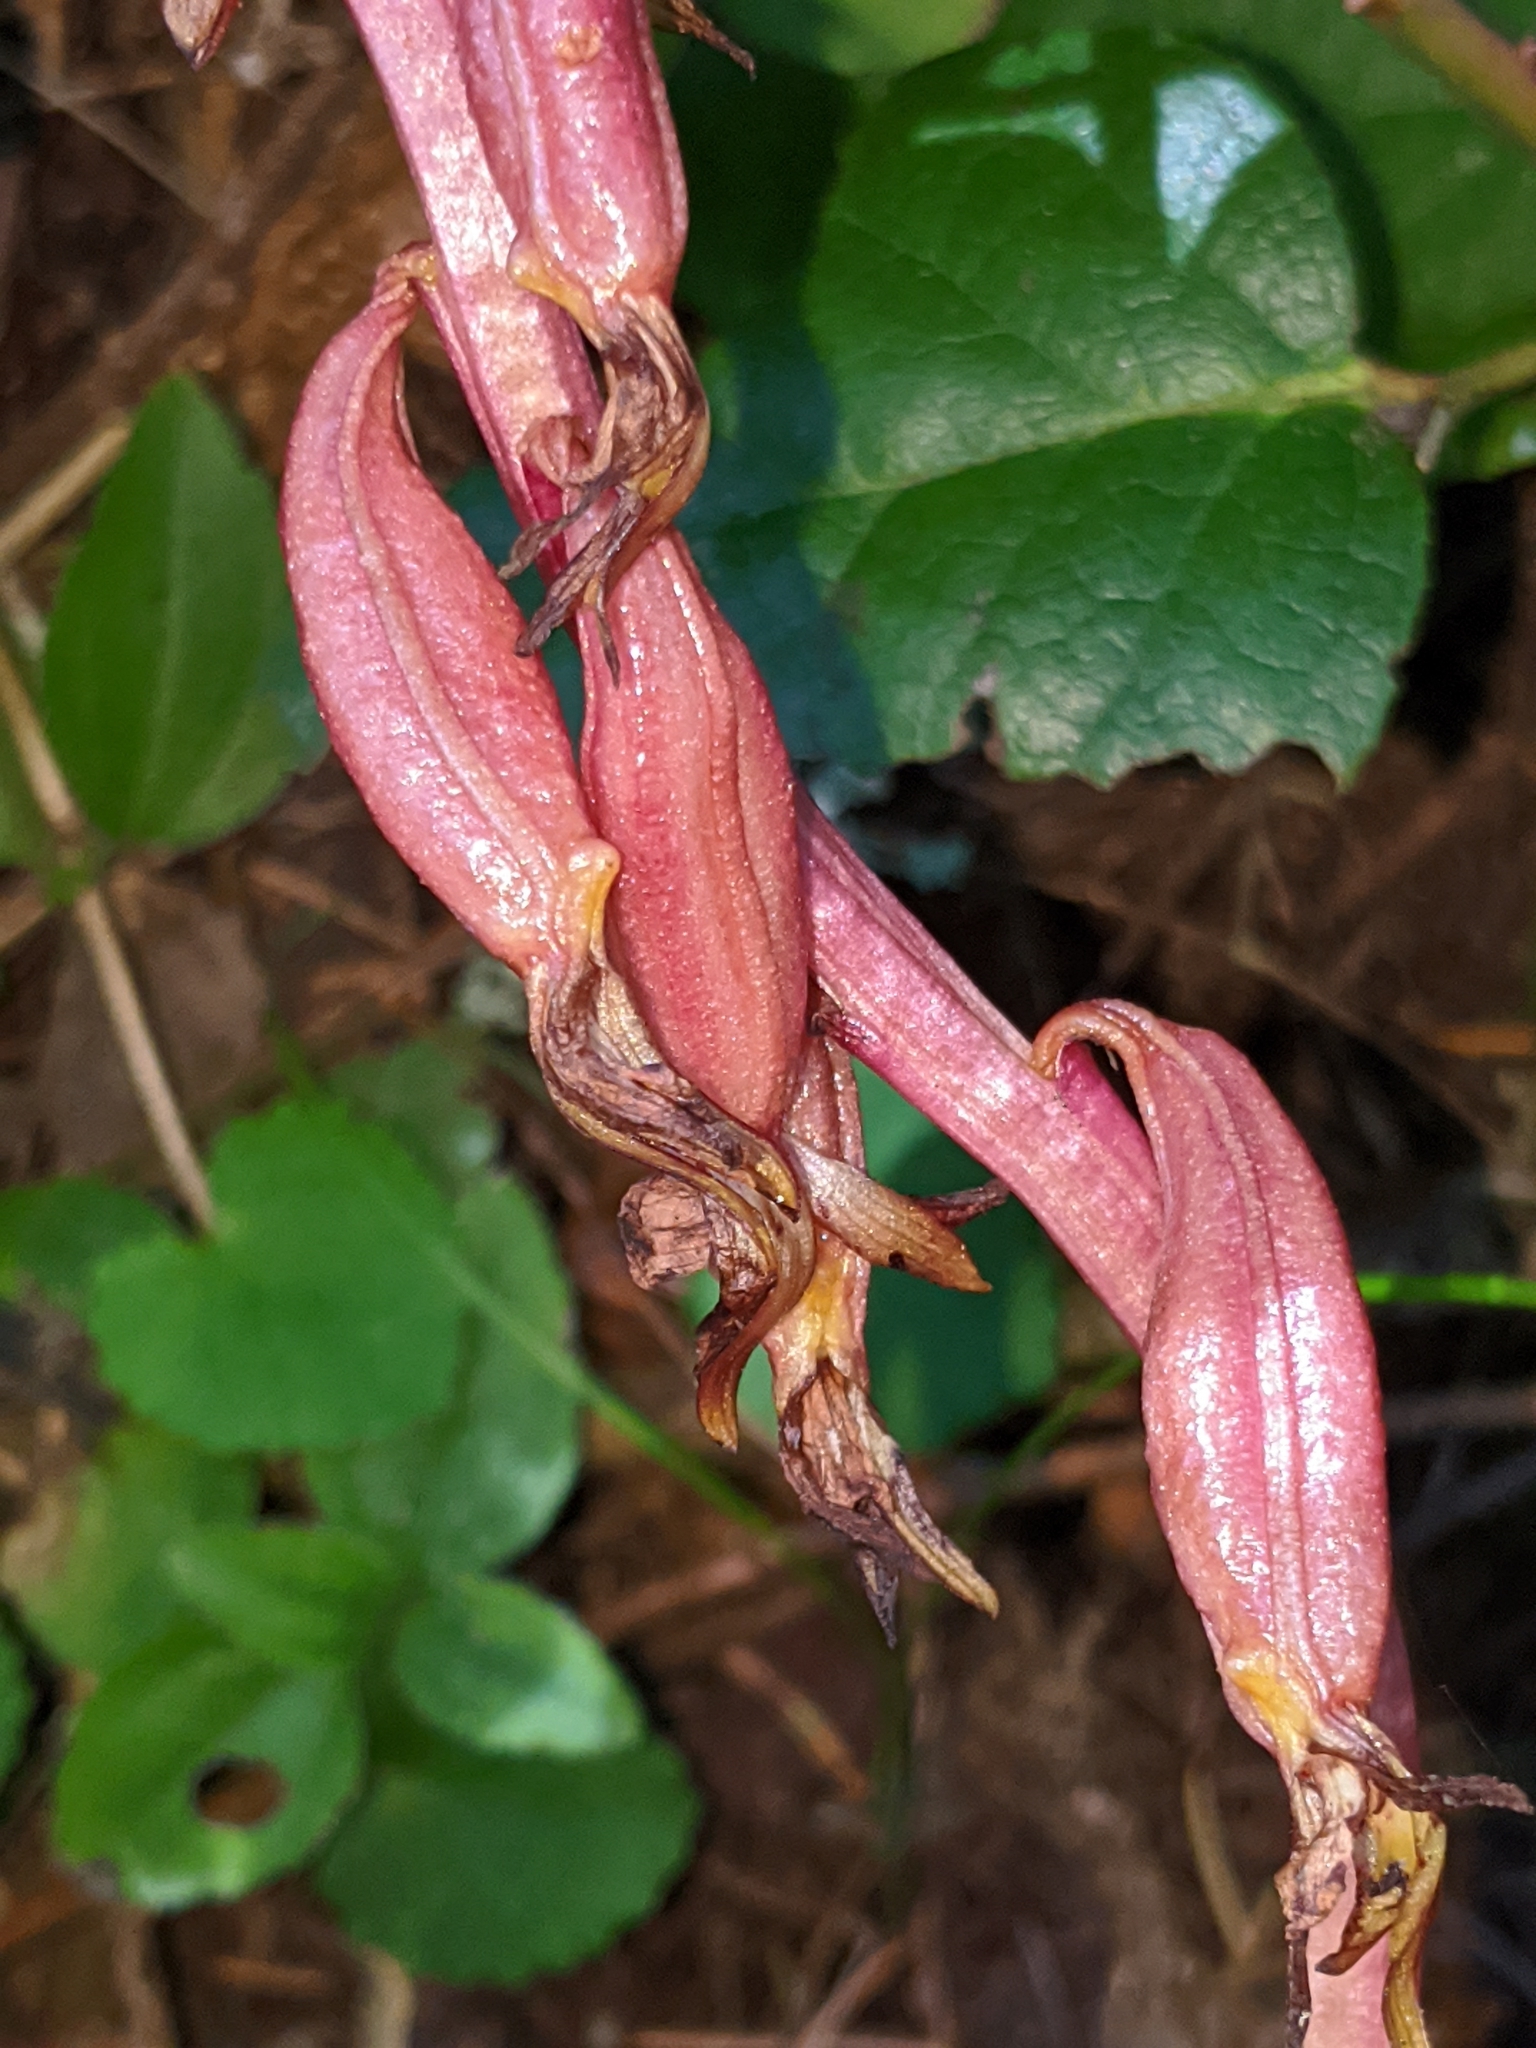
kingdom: Plantae
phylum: Tracheophyta
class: Liliopsida
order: Asparagales
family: Orchidaceae
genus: Corallorhiza
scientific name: Corallorhiza maculata
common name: Spotted coralroot
